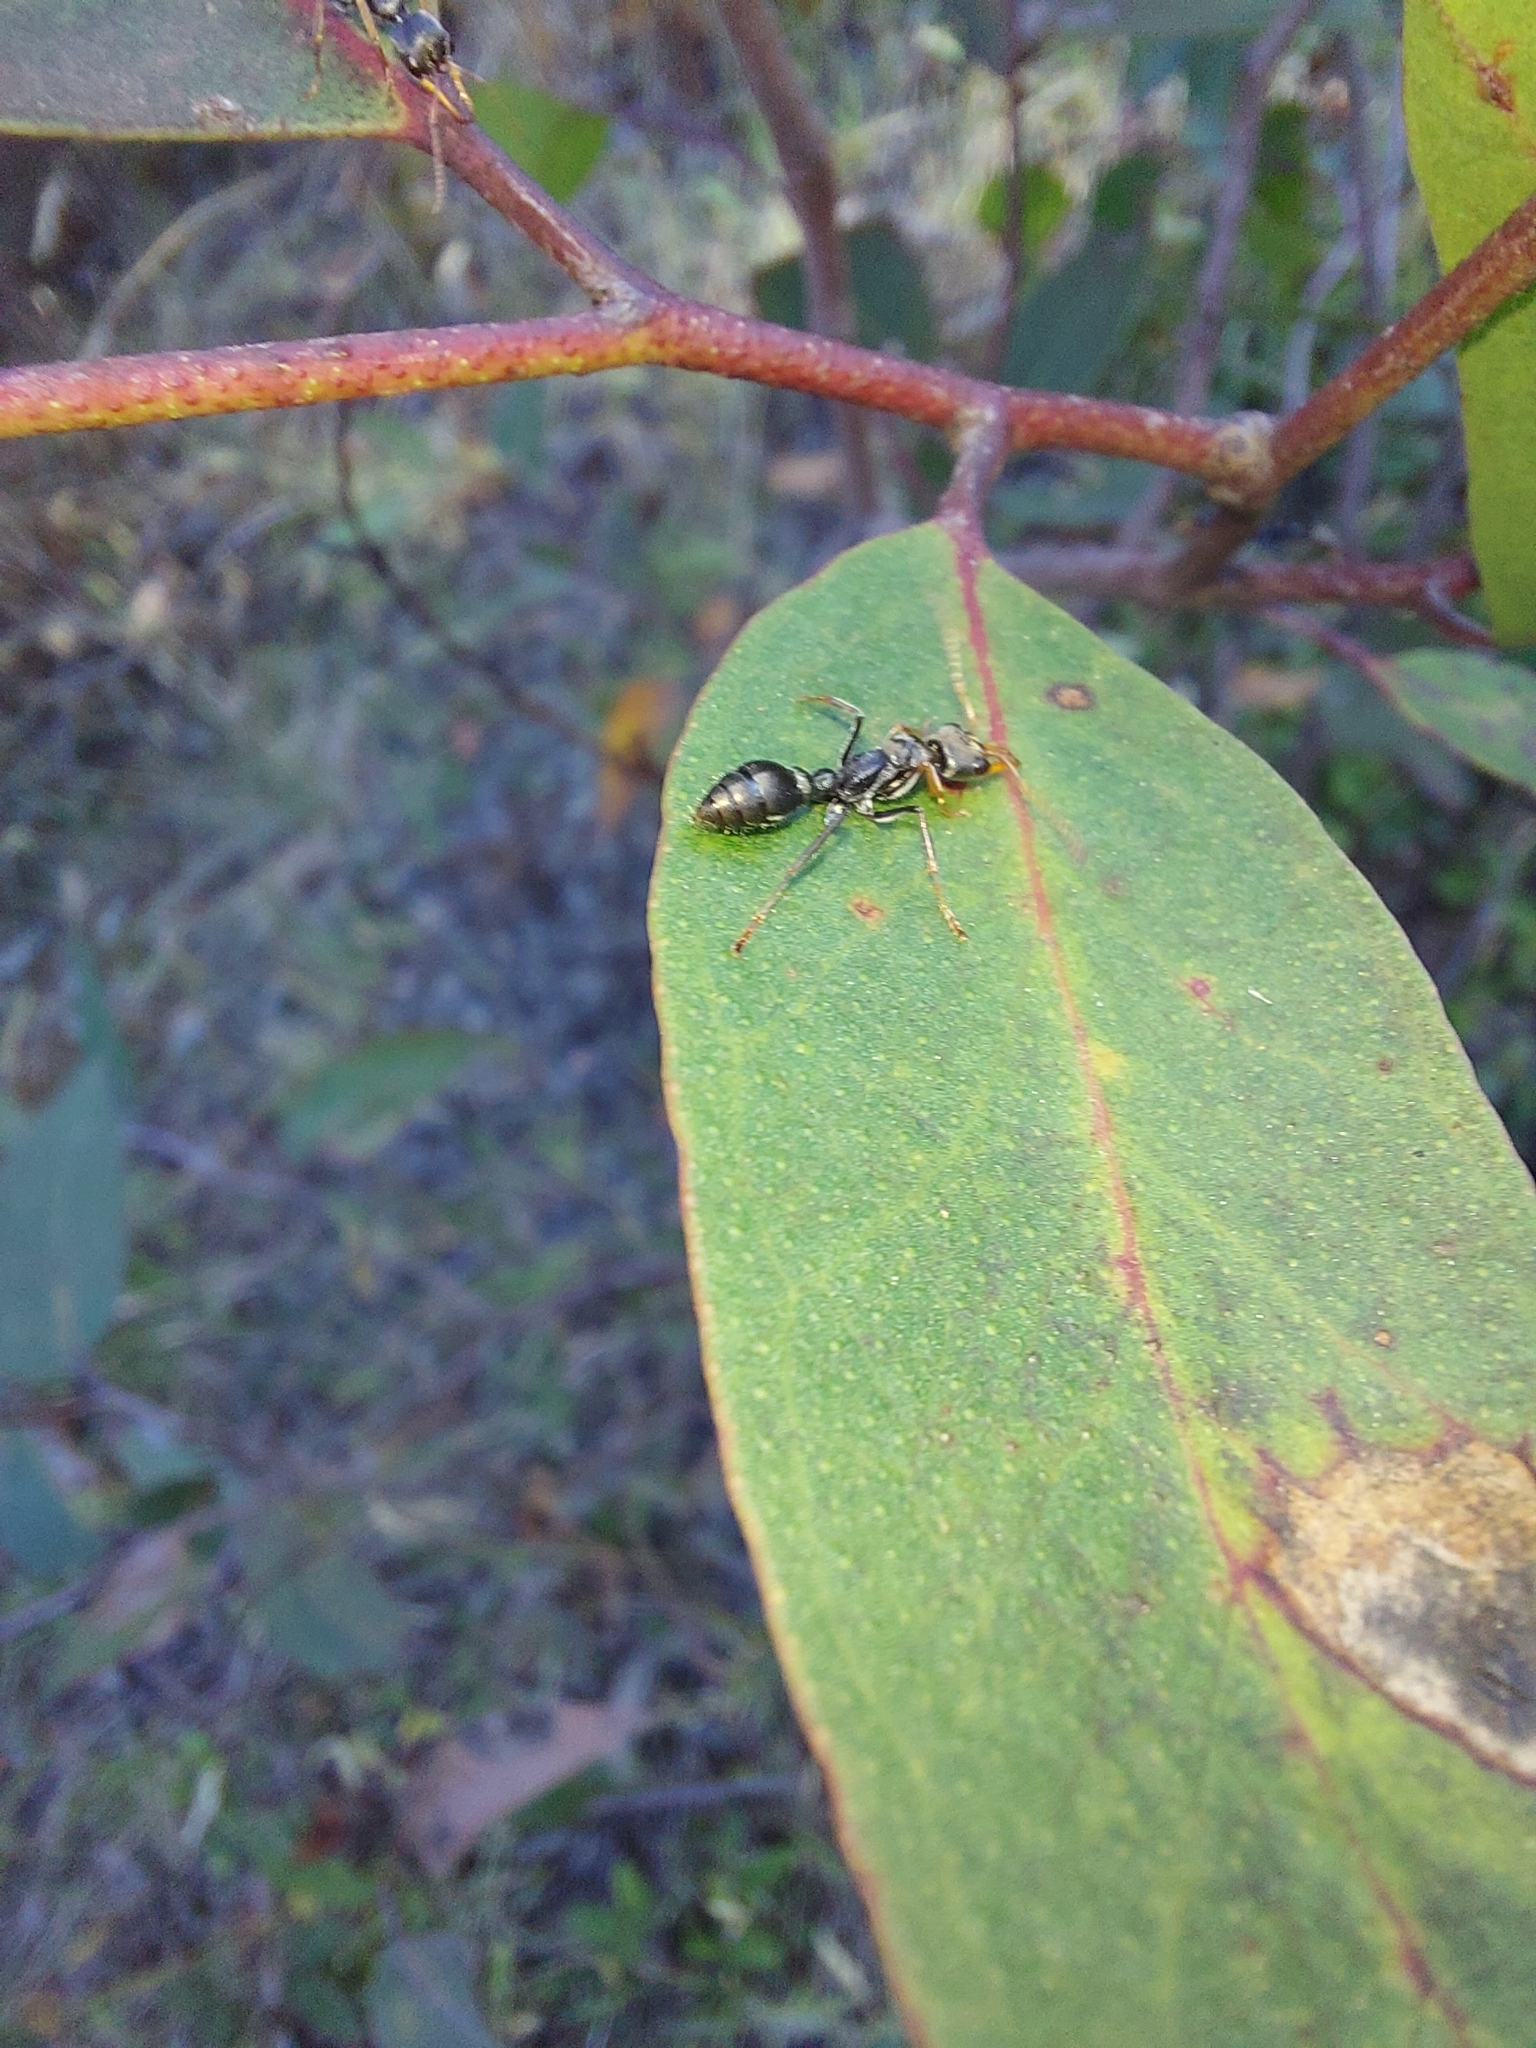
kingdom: Animalia
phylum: Arthropoda
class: Insecta
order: Hymenoptera
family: Formicidae
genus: Myrmecia
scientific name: Myrmecia pilosula
